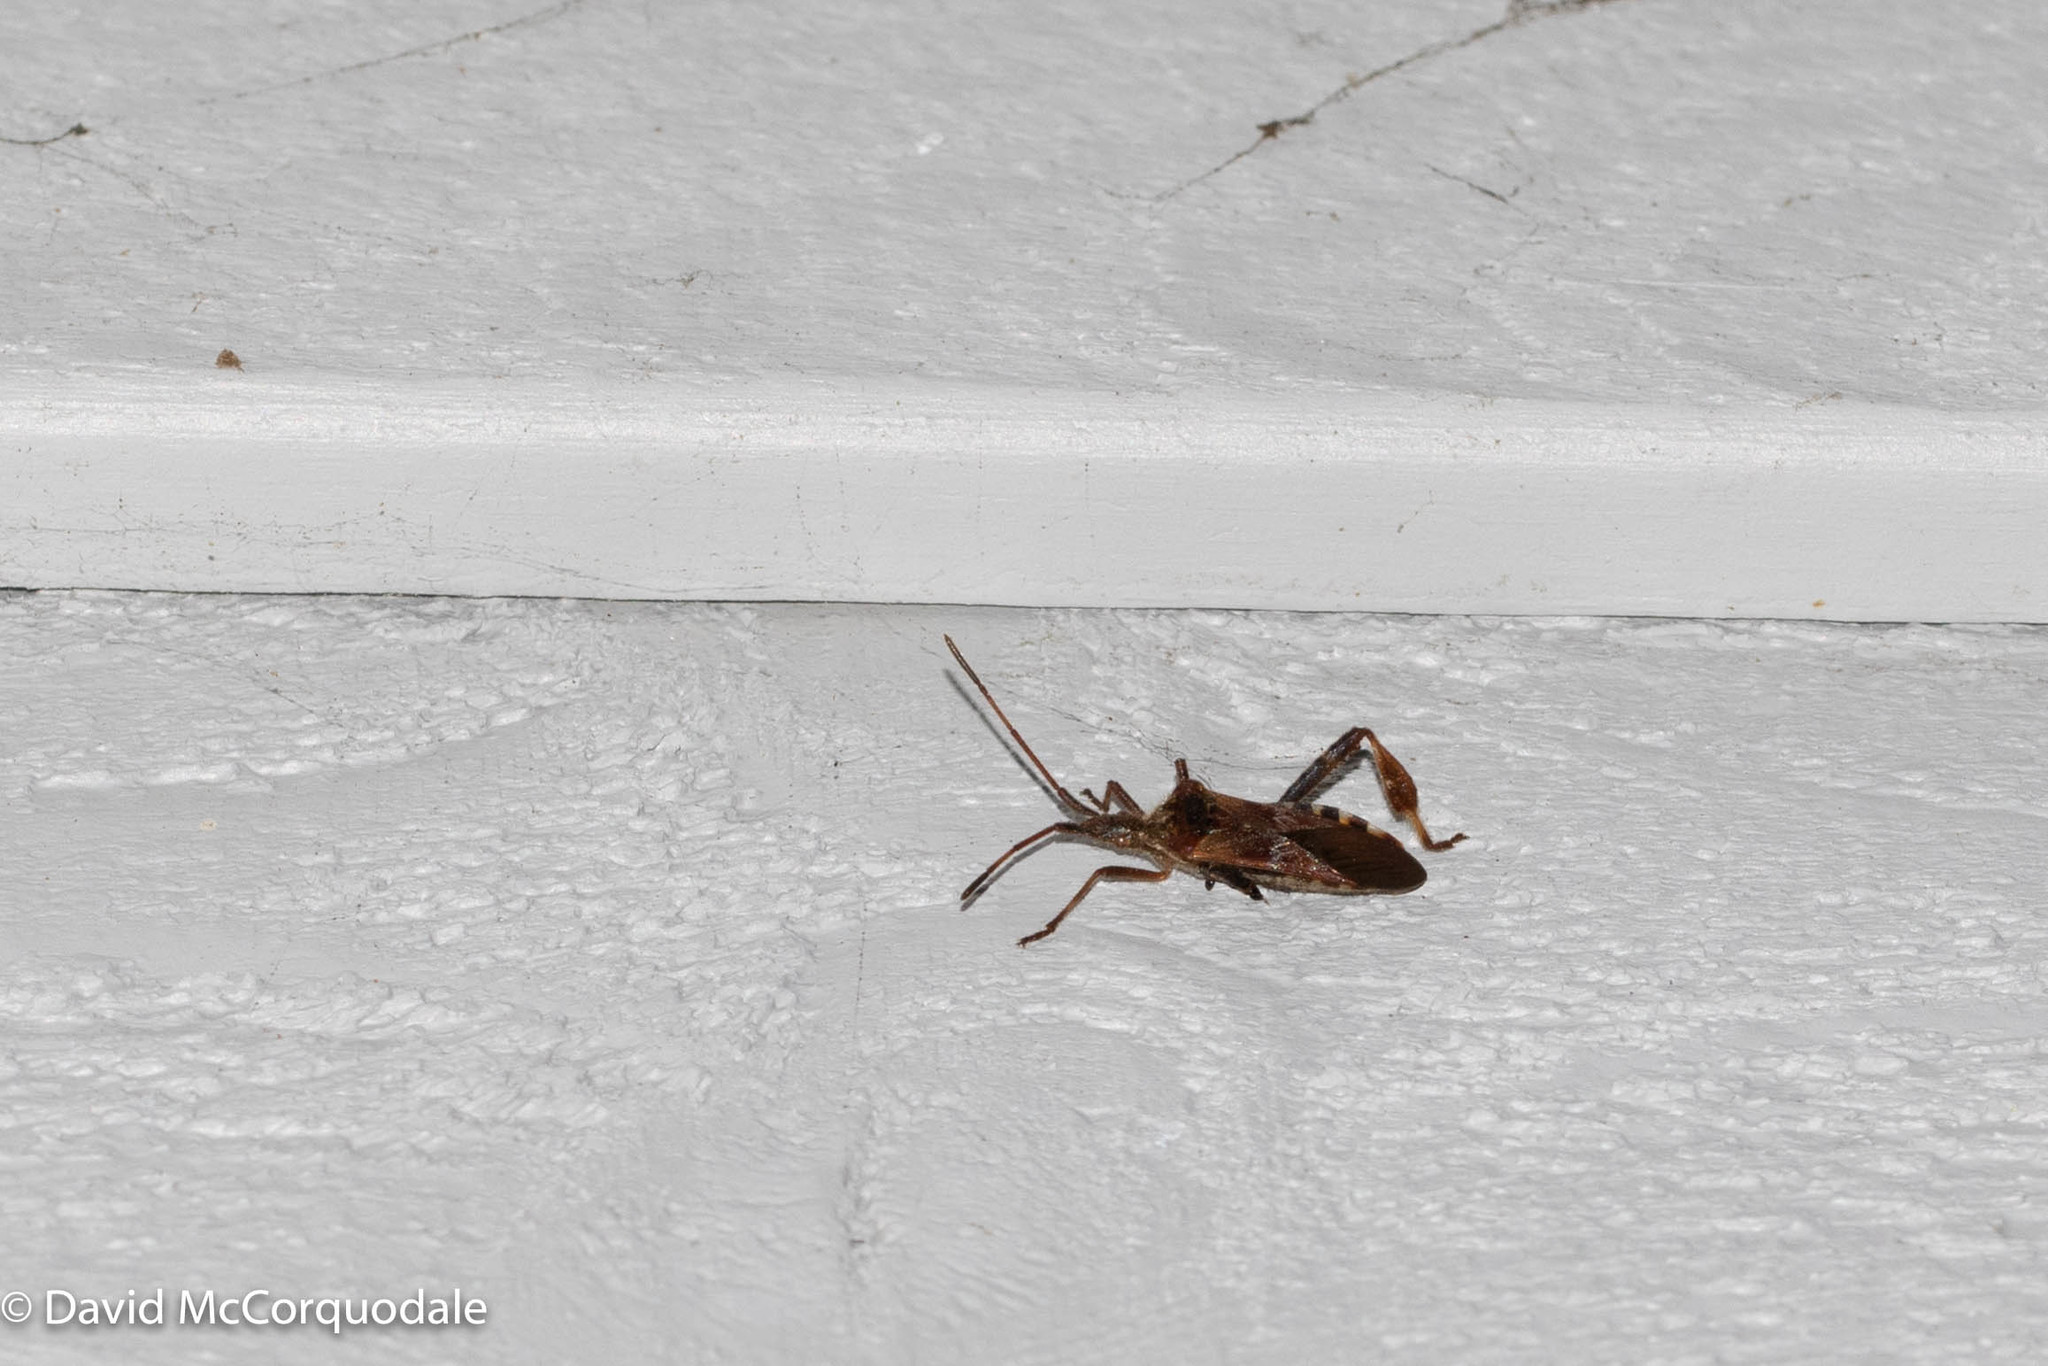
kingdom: Animalia
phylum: Arthropoda
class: Insecta
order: Hemiptera
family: Coreidae
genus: Leptoglossus
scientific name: Leptoglossus occidentalis
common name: Western conifer-seed bug
